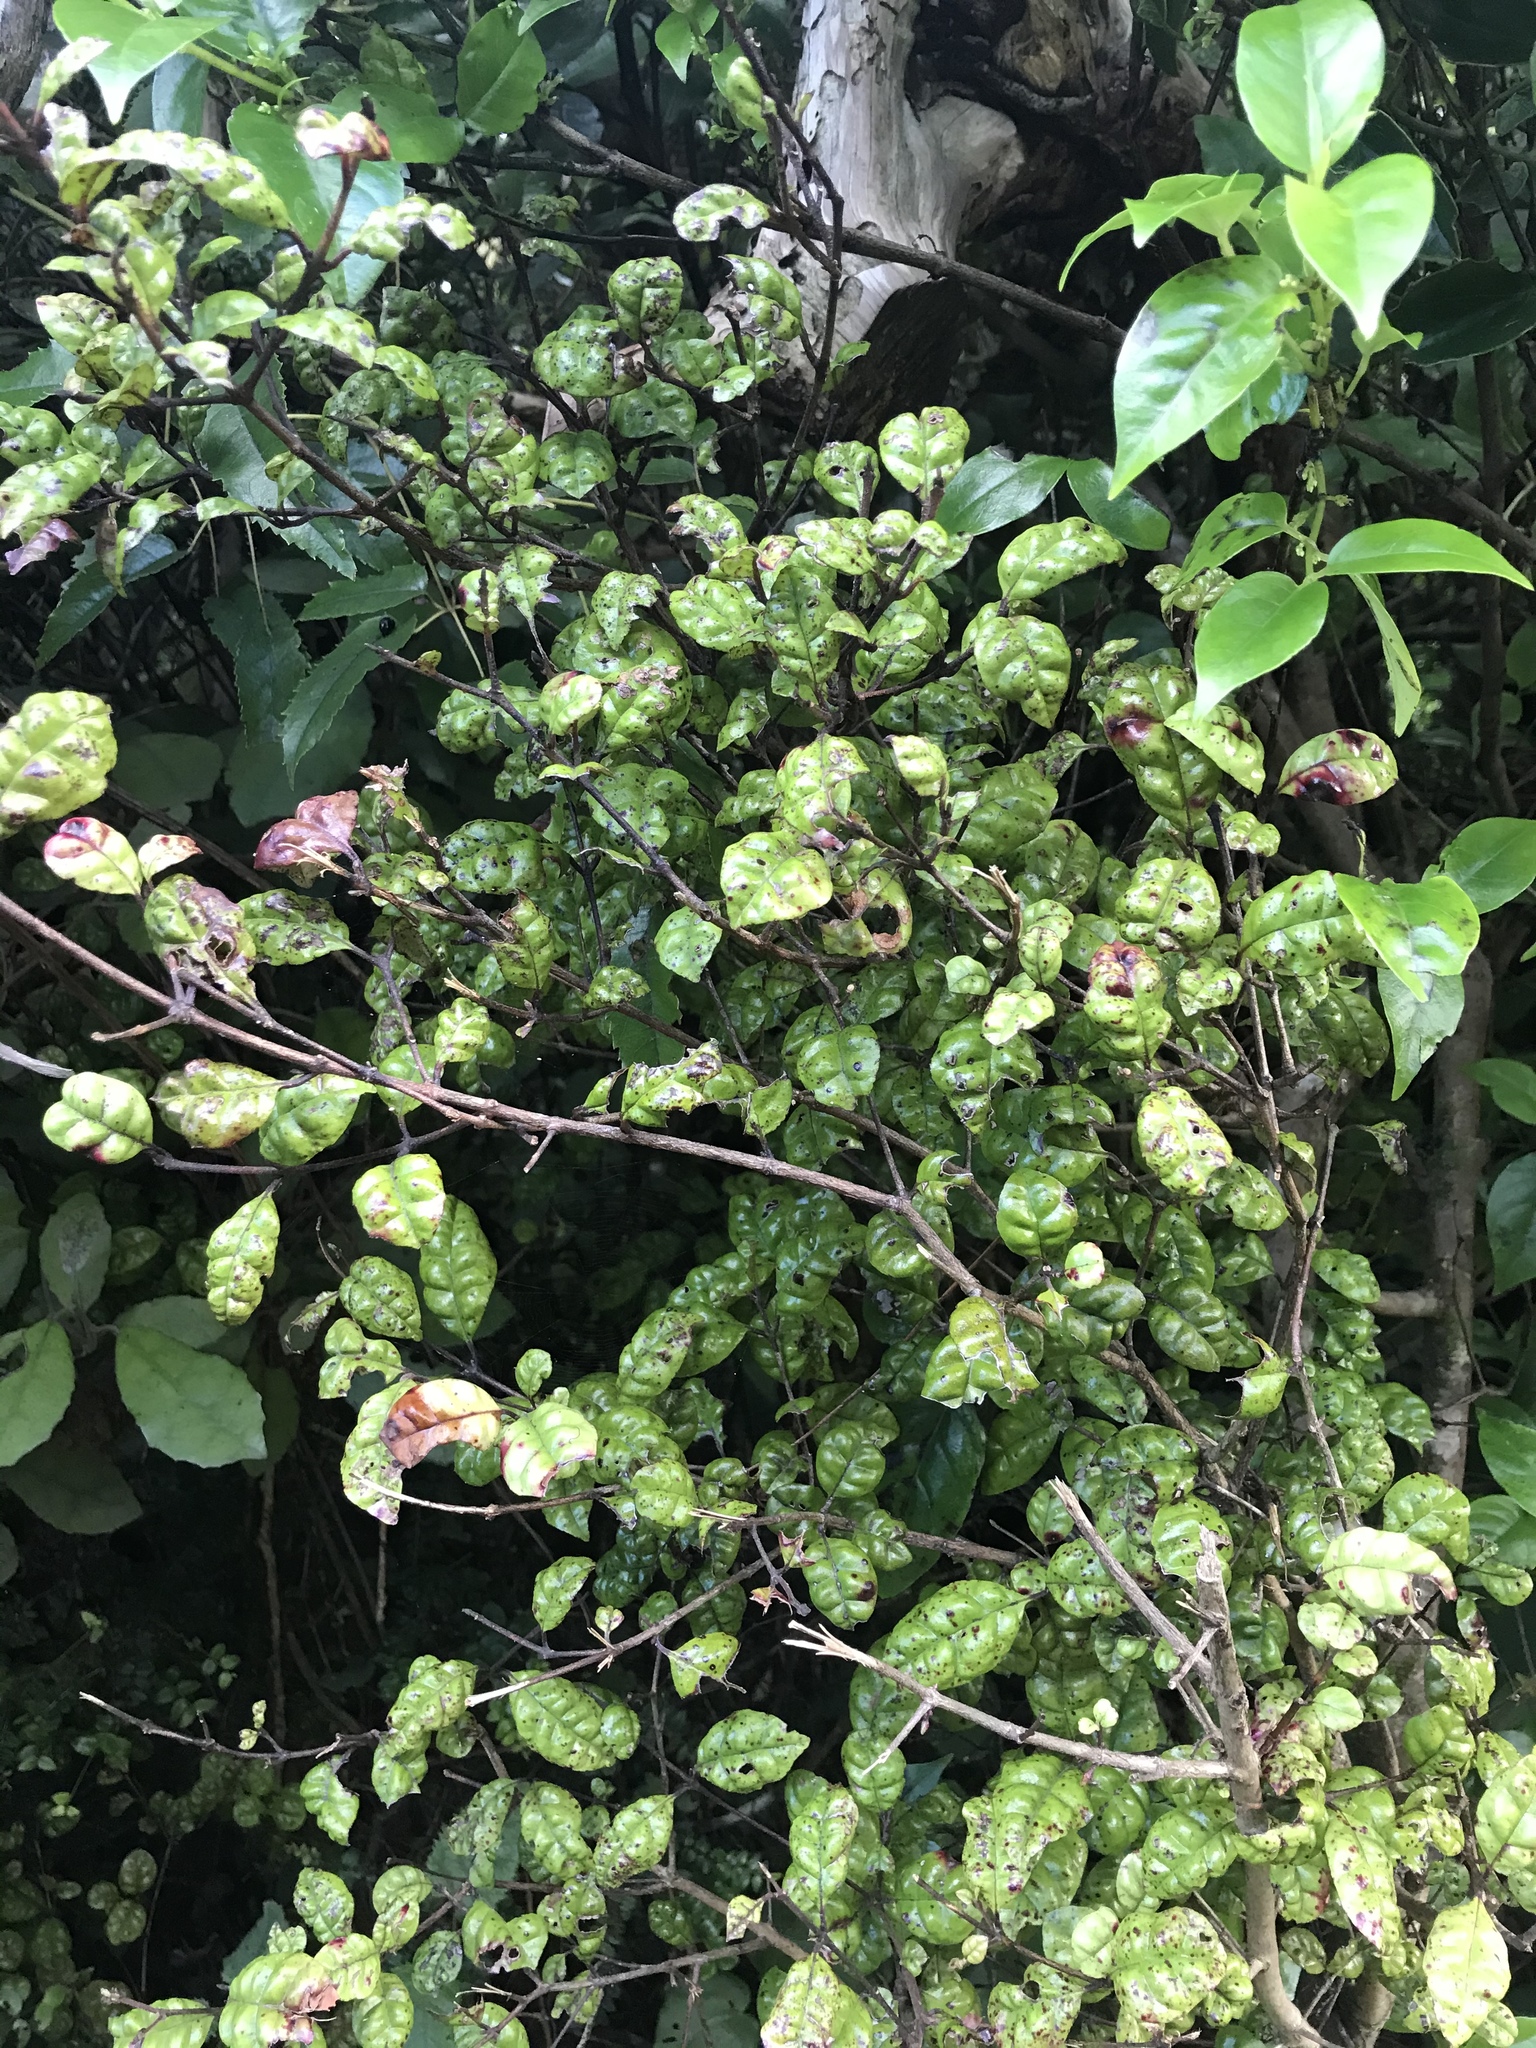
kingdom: Plantae
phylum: Tracheophyta
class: Magnoliopsida
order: Myrtales
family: Myrtaceae
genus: Lophomyrtus
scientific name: Lophomyrtus bullata
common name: Rama rama
